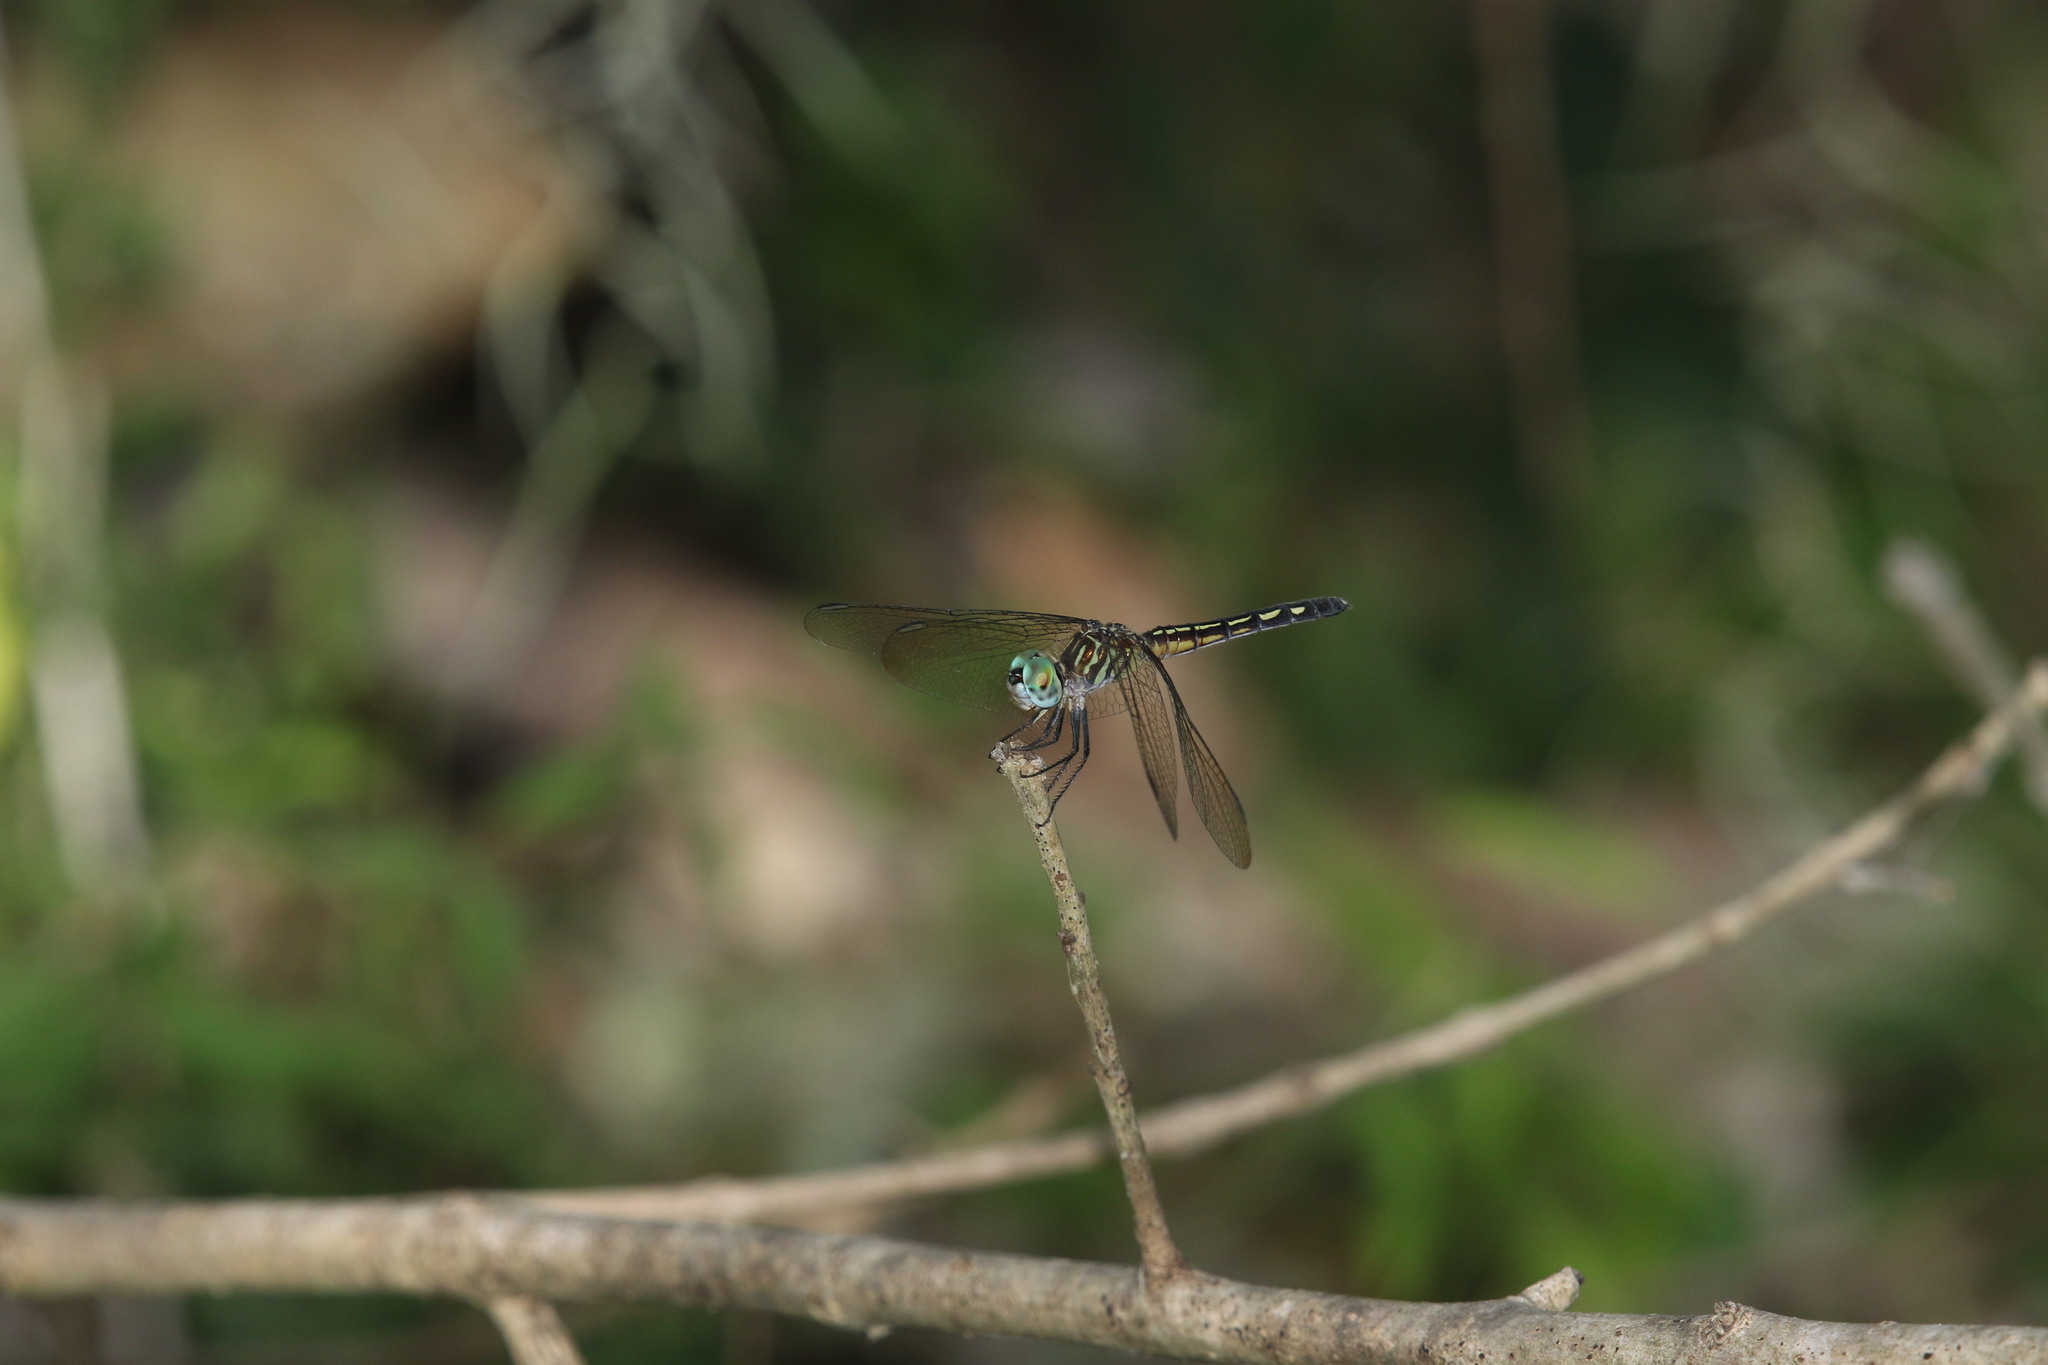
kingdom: Animalia
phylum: Arthropoda
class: Insecta
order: Odonata
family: Libellulidae
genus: Pachydiplax
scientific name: Pachydiplax longipennis
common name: Blue dasher
